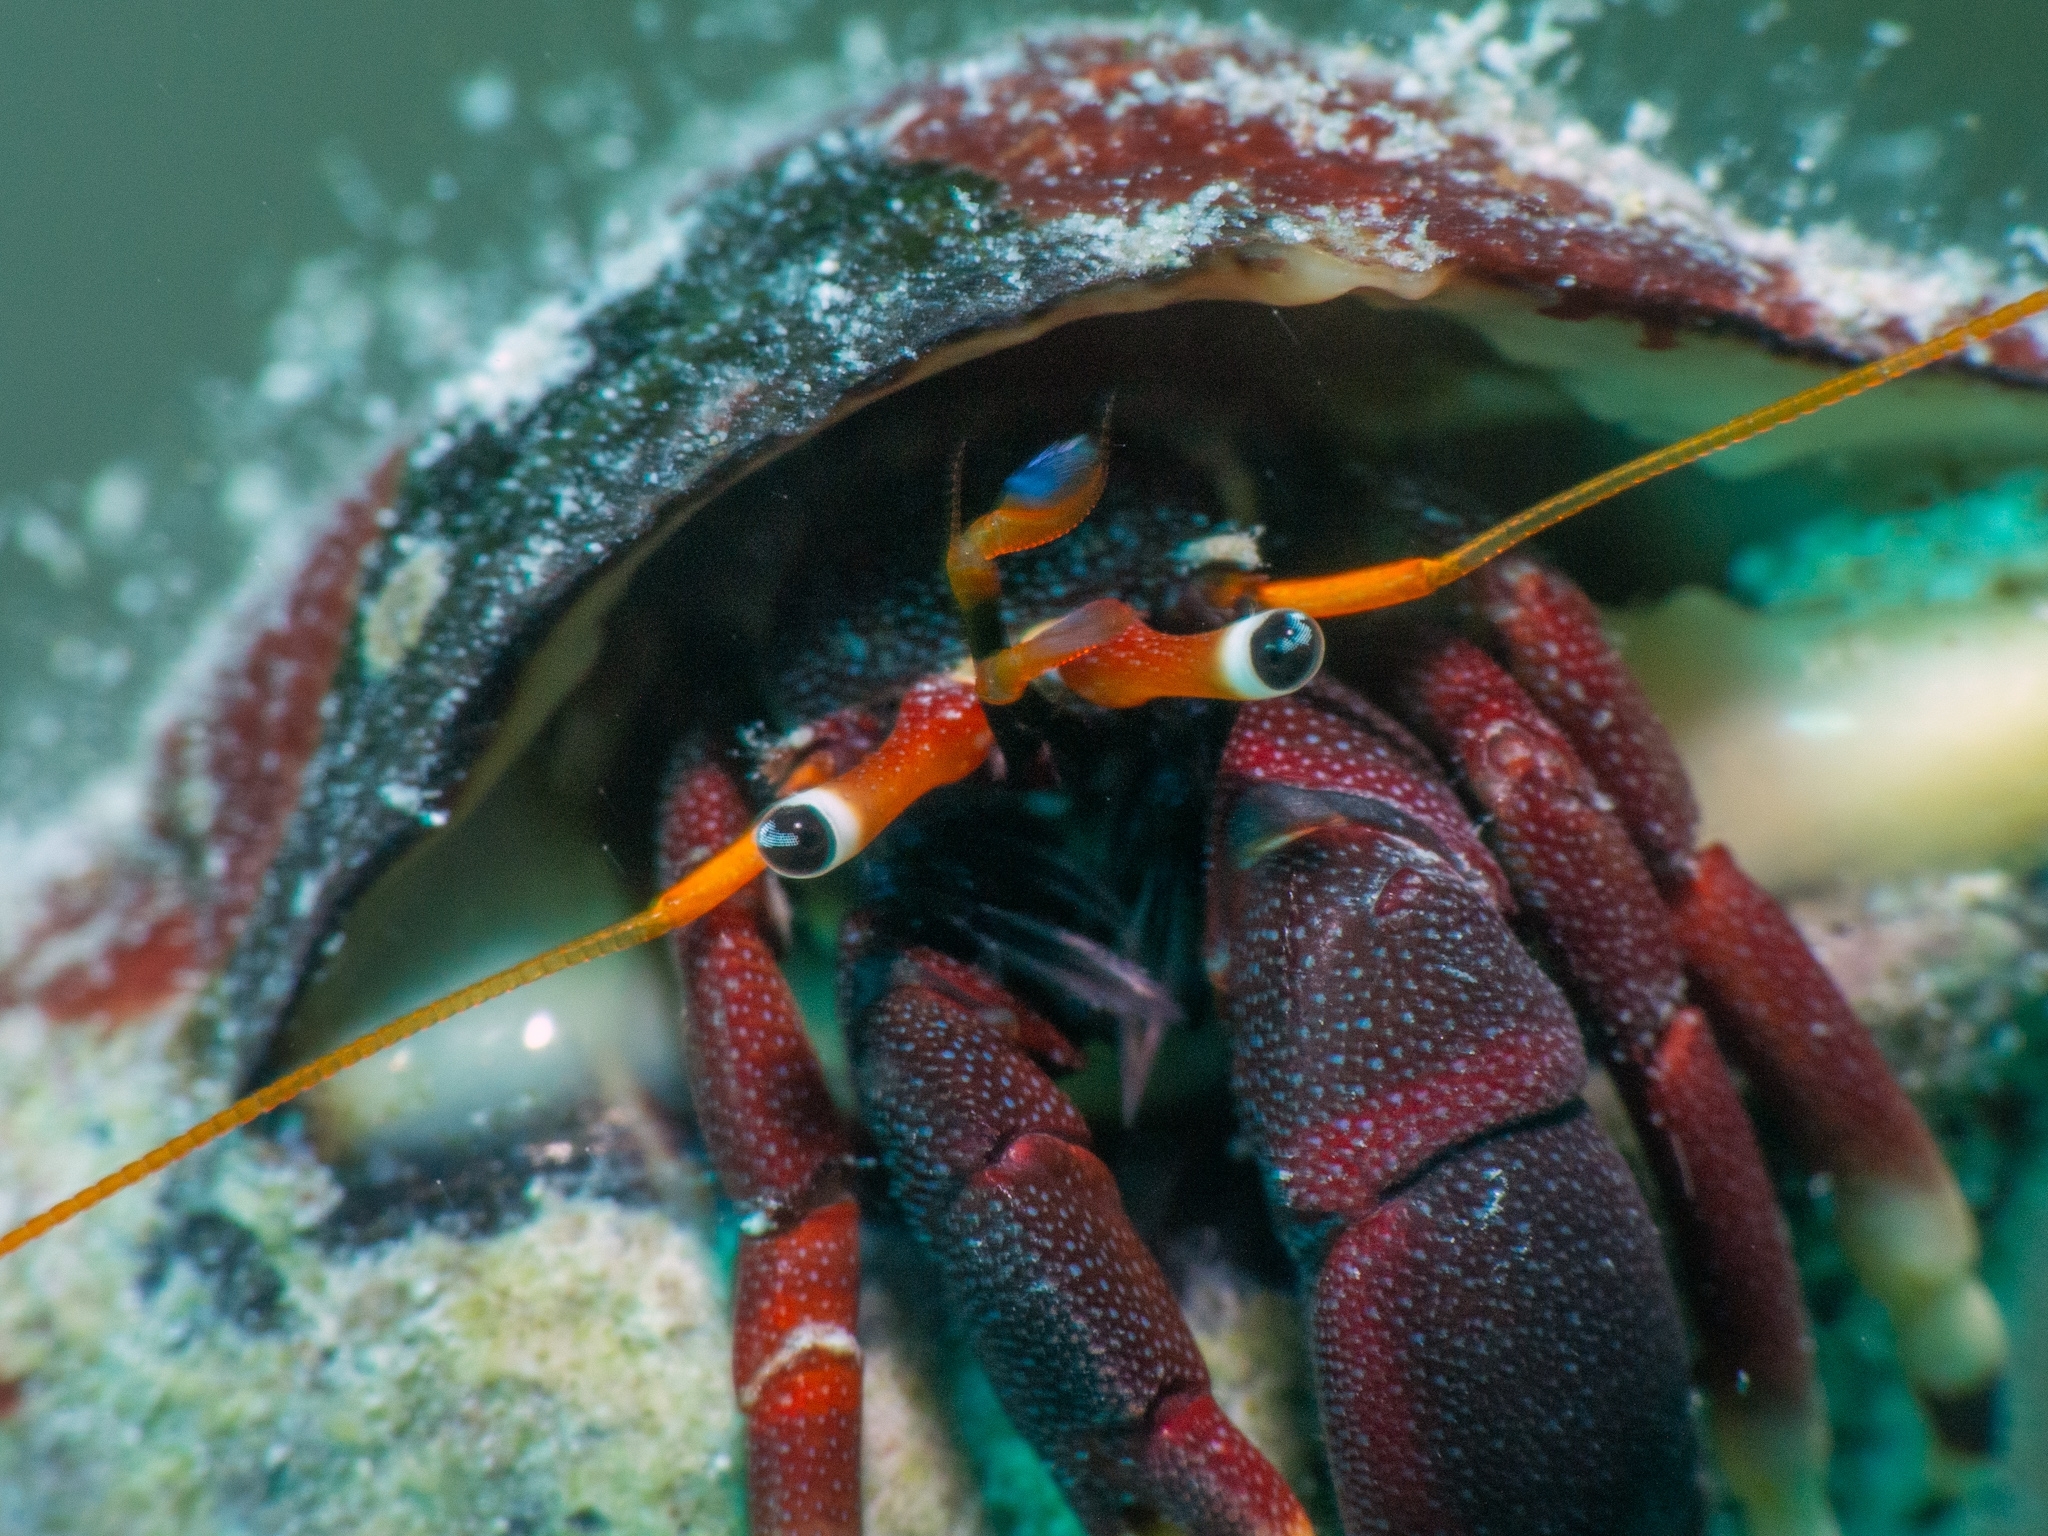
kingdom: Animalia
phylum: Arthropoda
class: Malacostraca
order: Decapoda
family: Diogenidae
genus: Calcinus
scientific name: Calcinus tibicen
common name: Orangeclaw hermit
